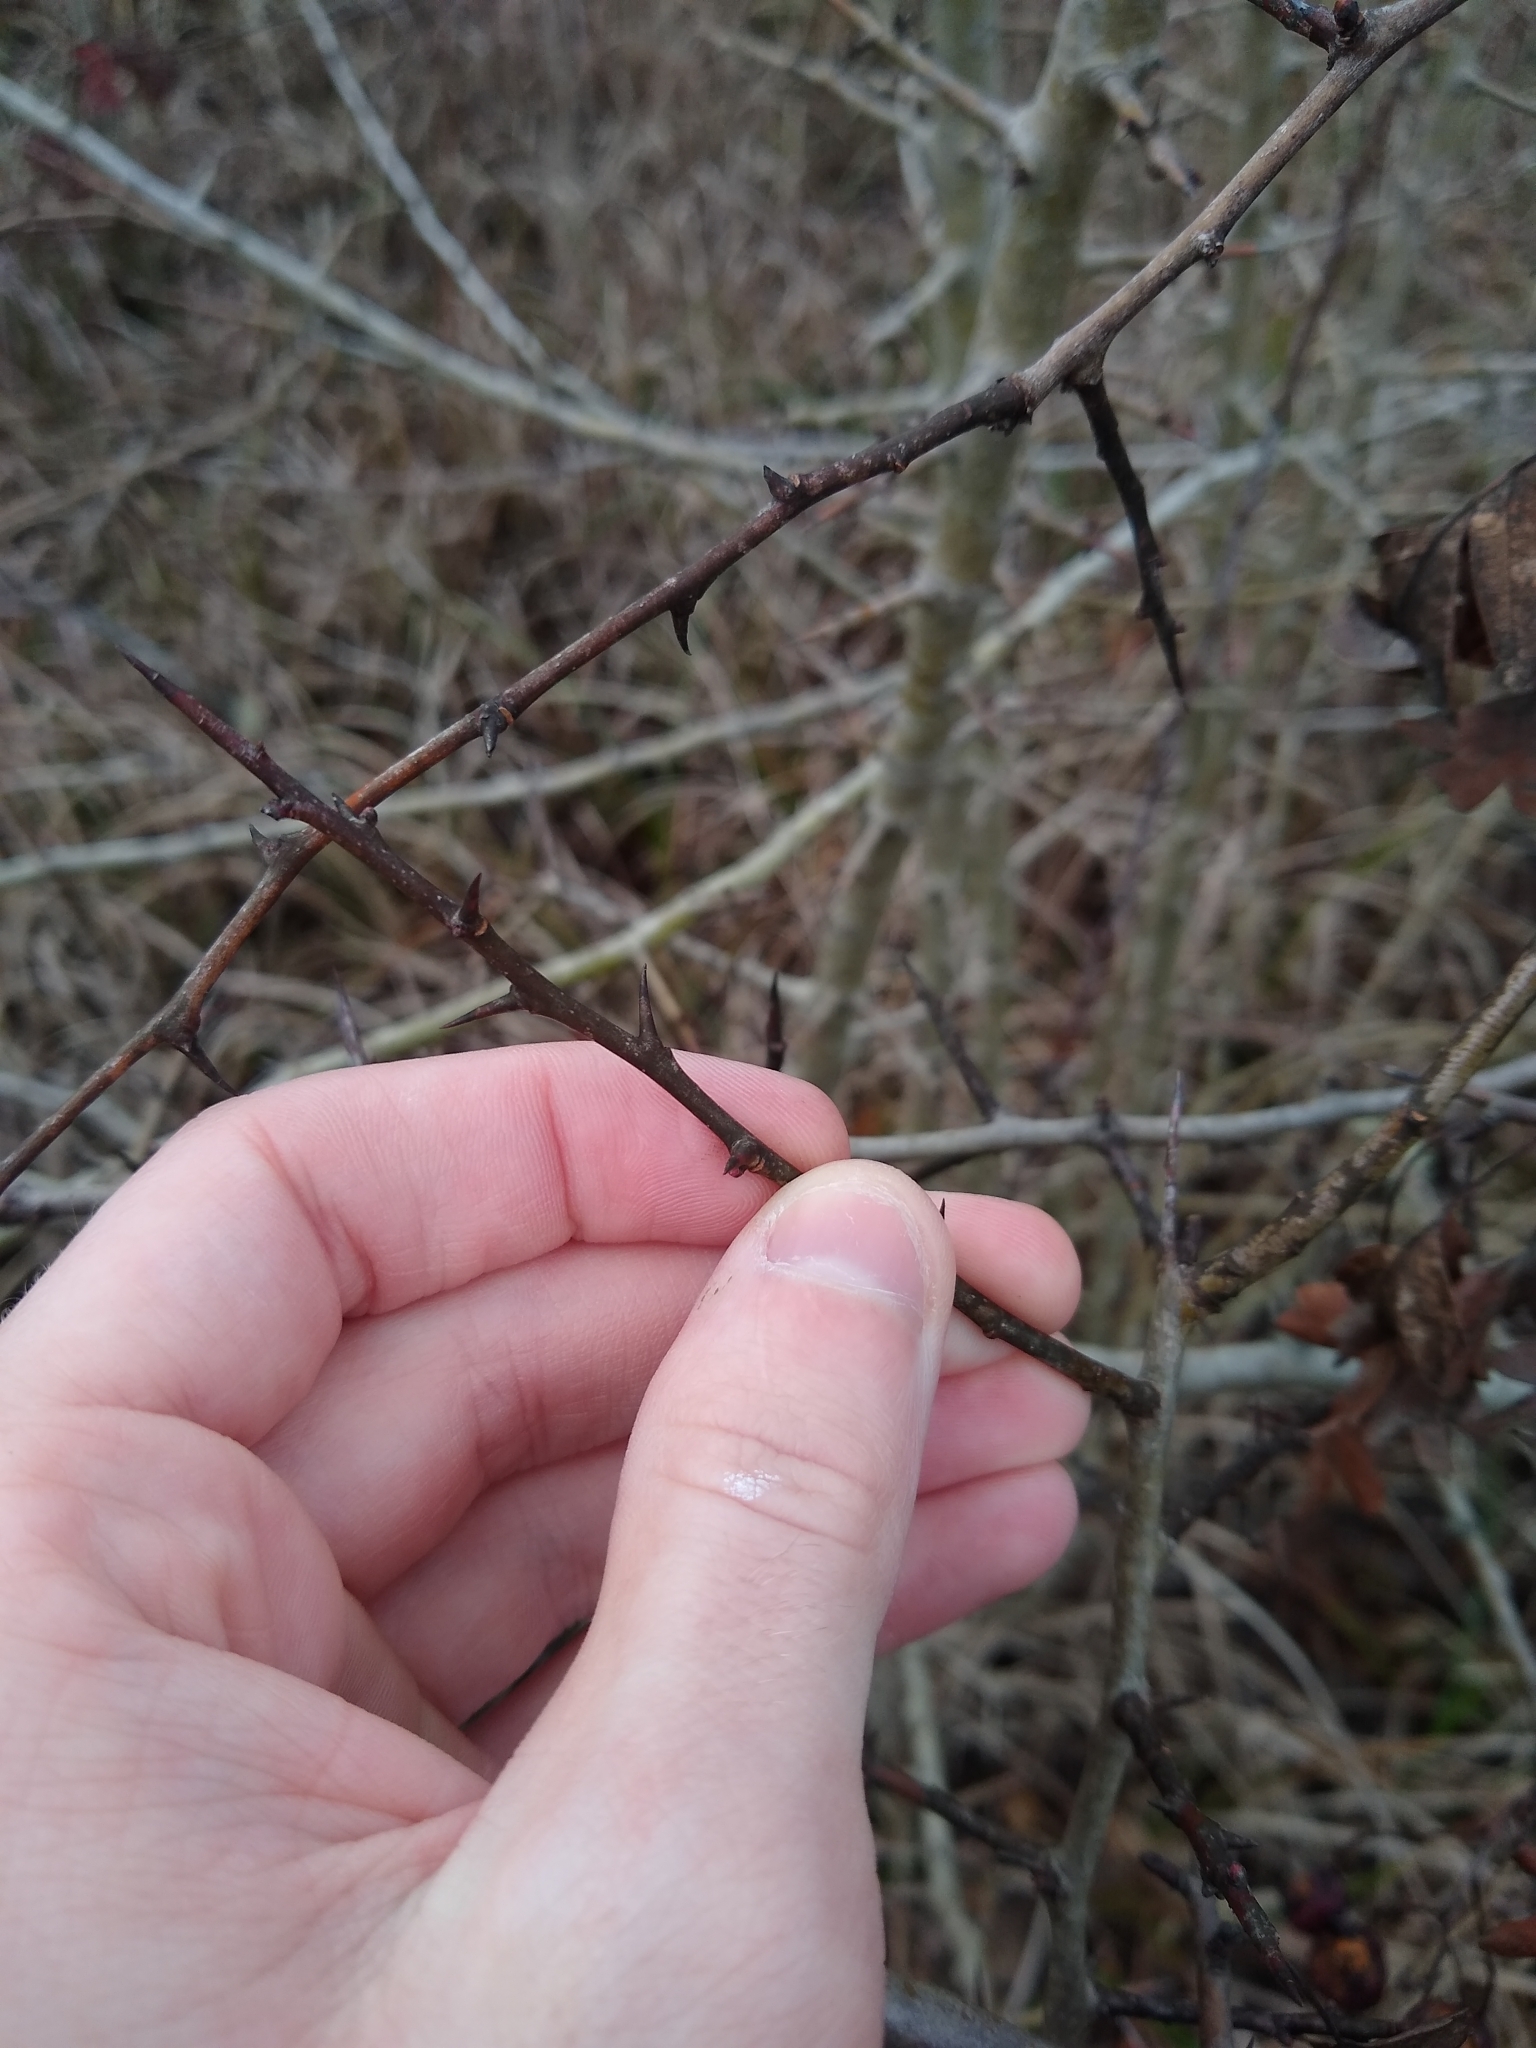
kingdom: Plantae
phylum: Tracheophyta
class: Magnoliopsida
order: Rosales
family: Rosaceae
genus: Crataegus
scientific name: Crataegus monogyna
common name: Hawthorn
